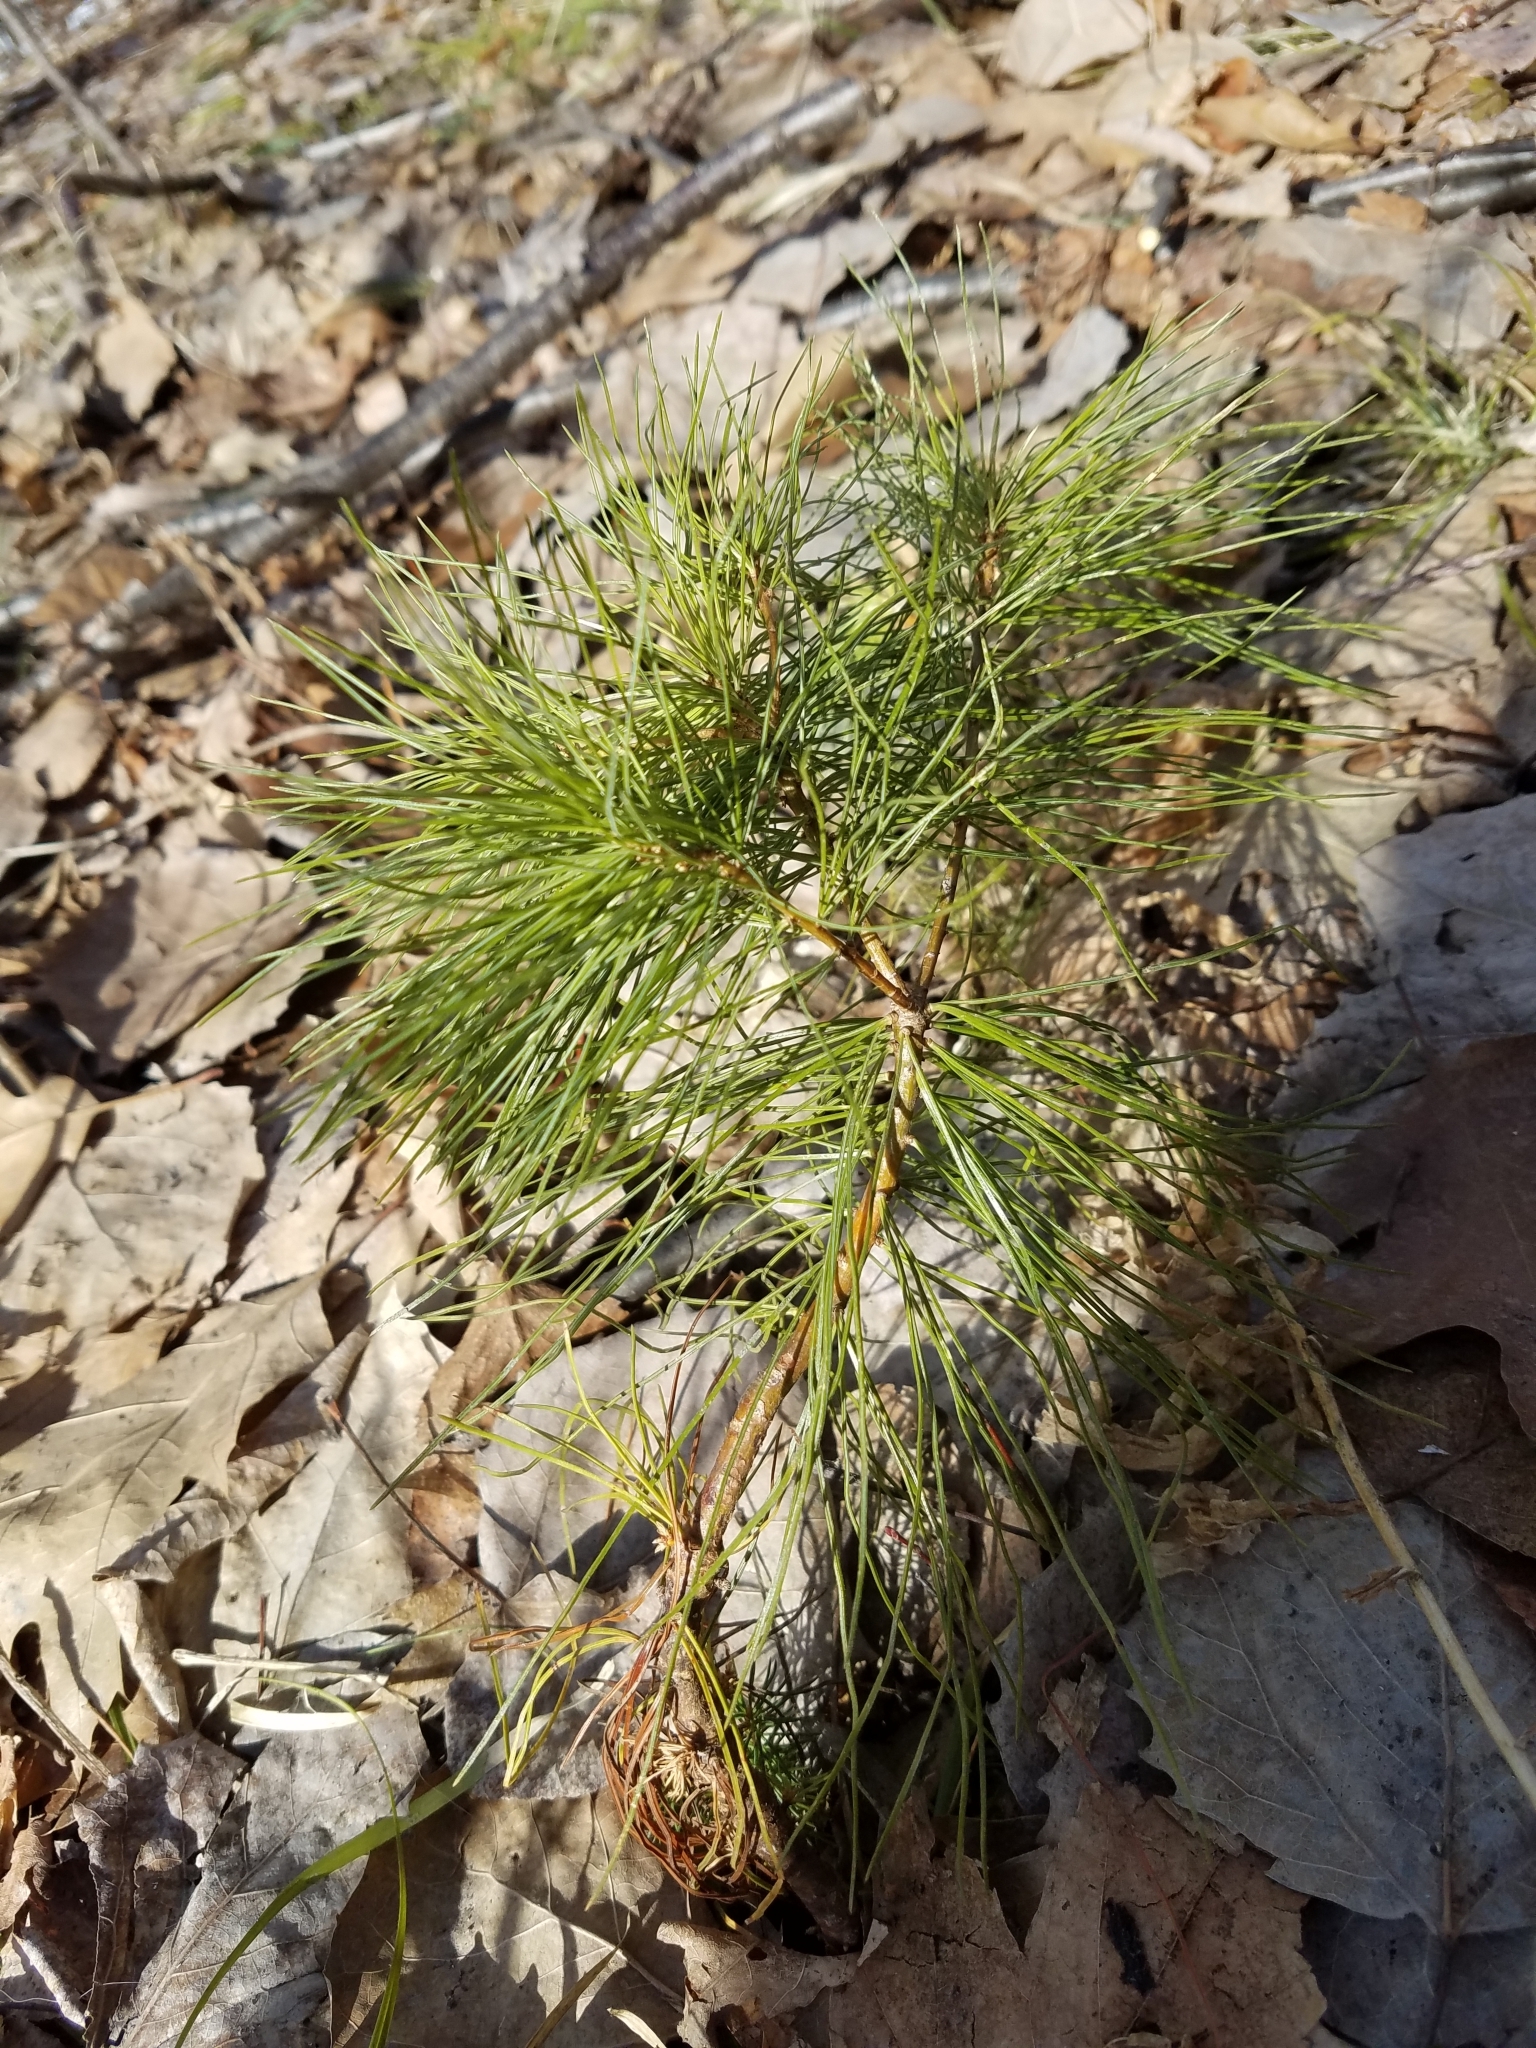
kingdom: Plantae
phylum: Tracheophyta
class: Pinopsida
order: Pinales
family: Pinaceae
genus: Pinus
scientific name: Pinus strobus
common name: Weymouth pine
